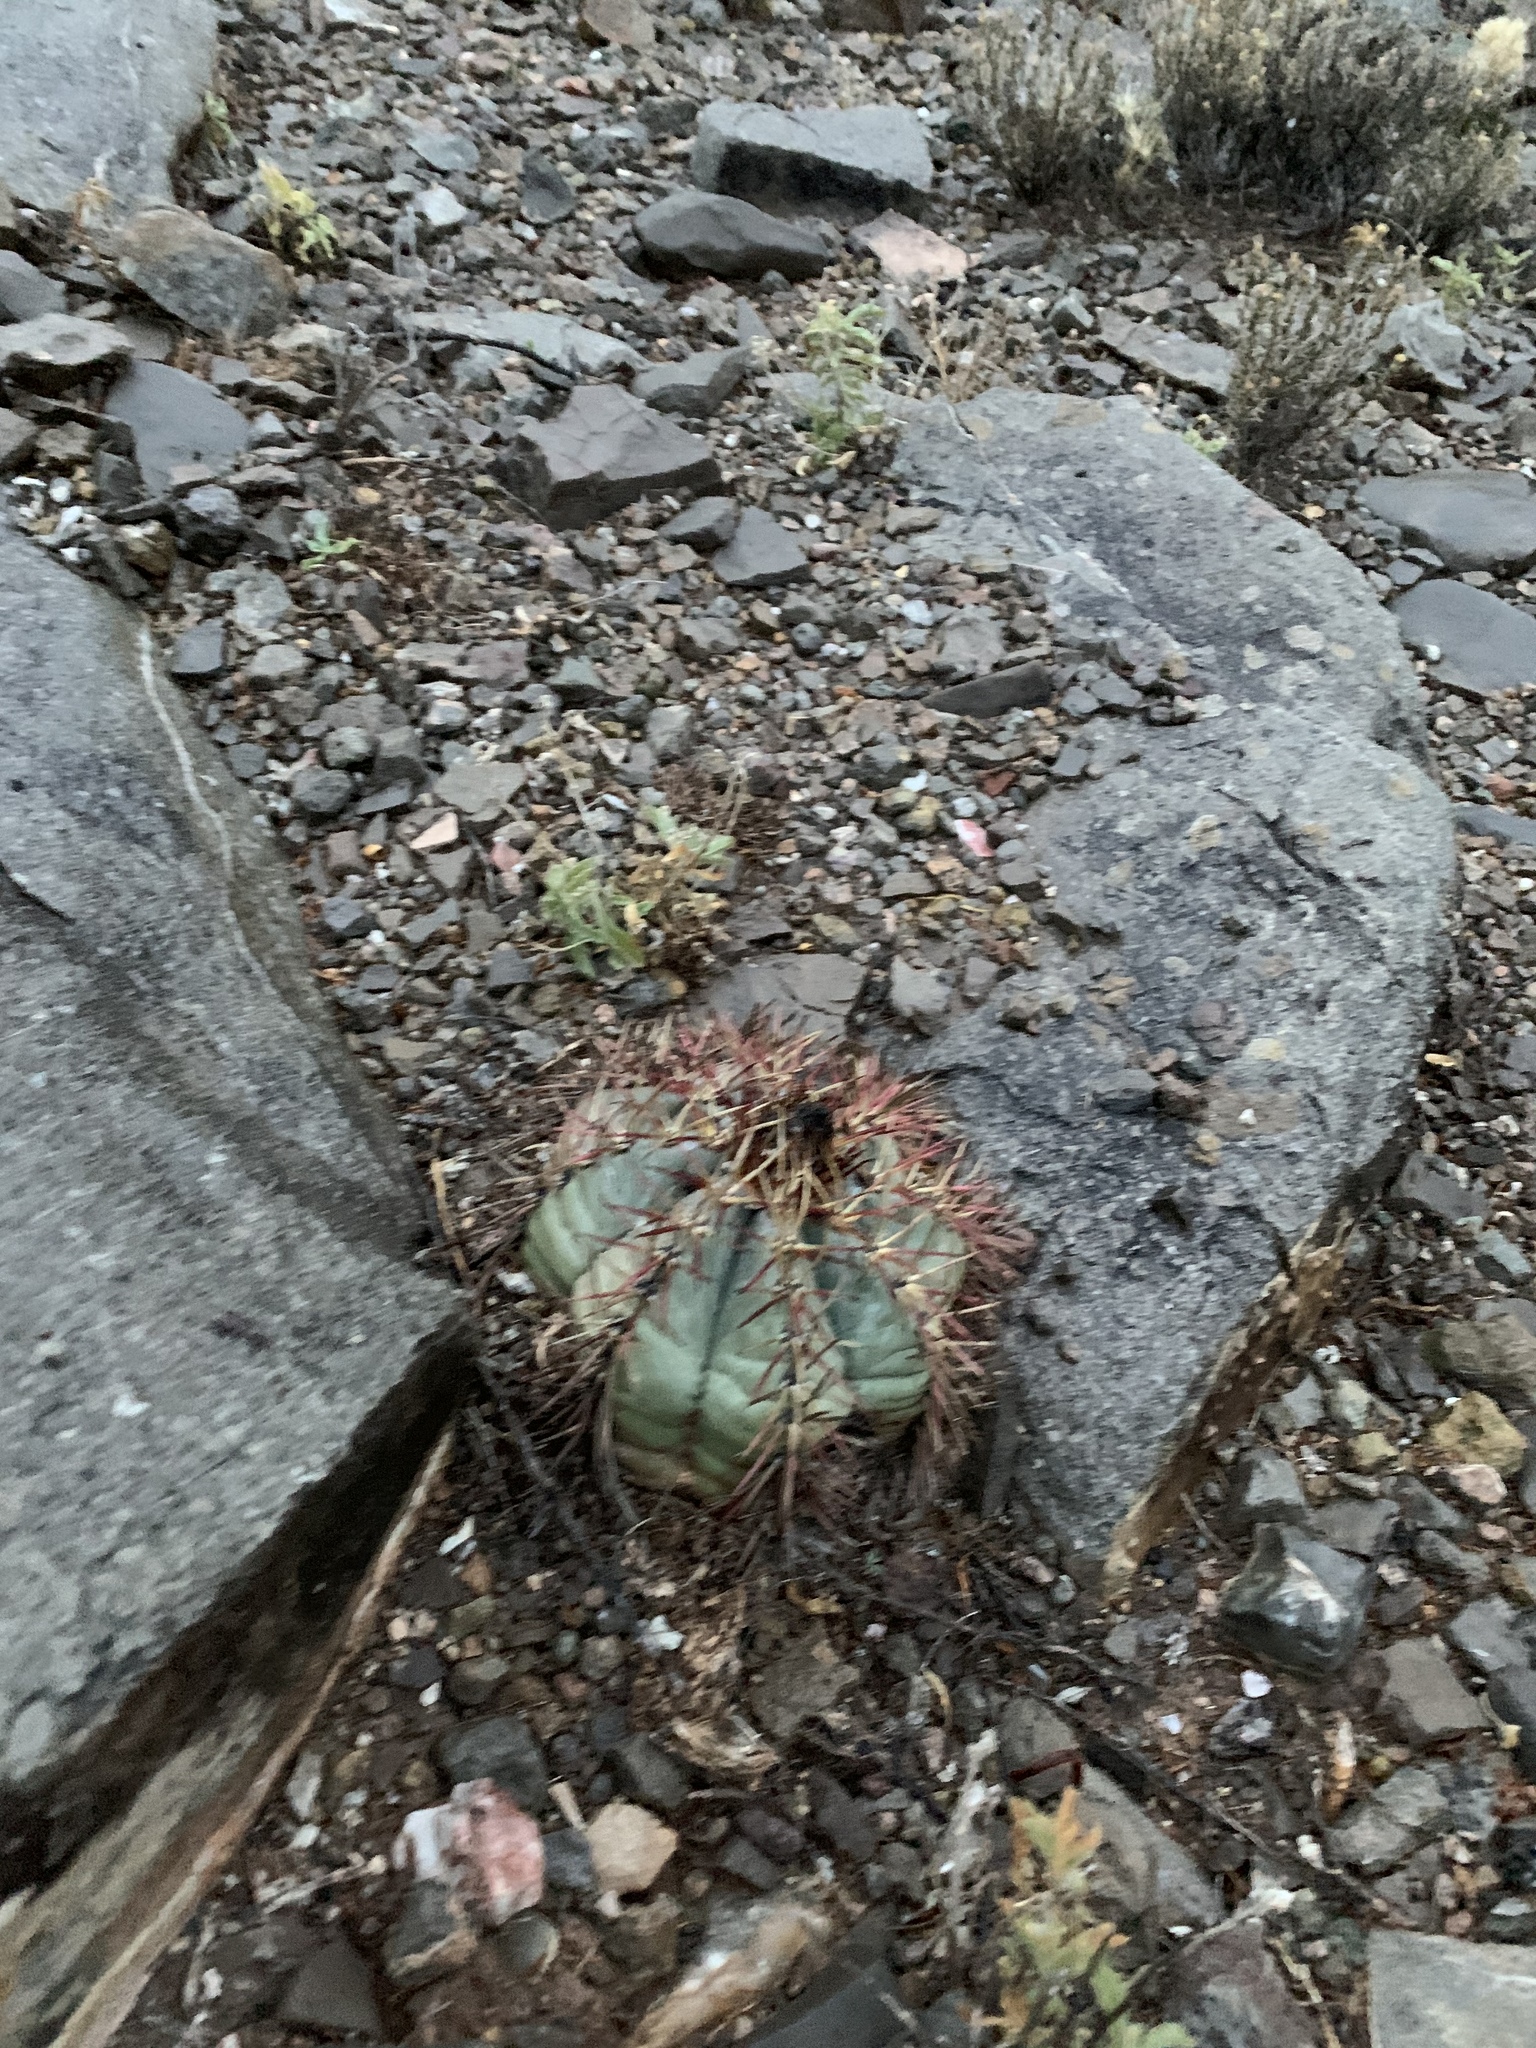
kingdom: Plantae
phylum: Tracheophyta
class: Magnoliopsida
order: Caryophyllales
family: Cactaceae
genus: Echinocactus
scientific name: Echinocactus horizonthalonius
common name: Devilshead
